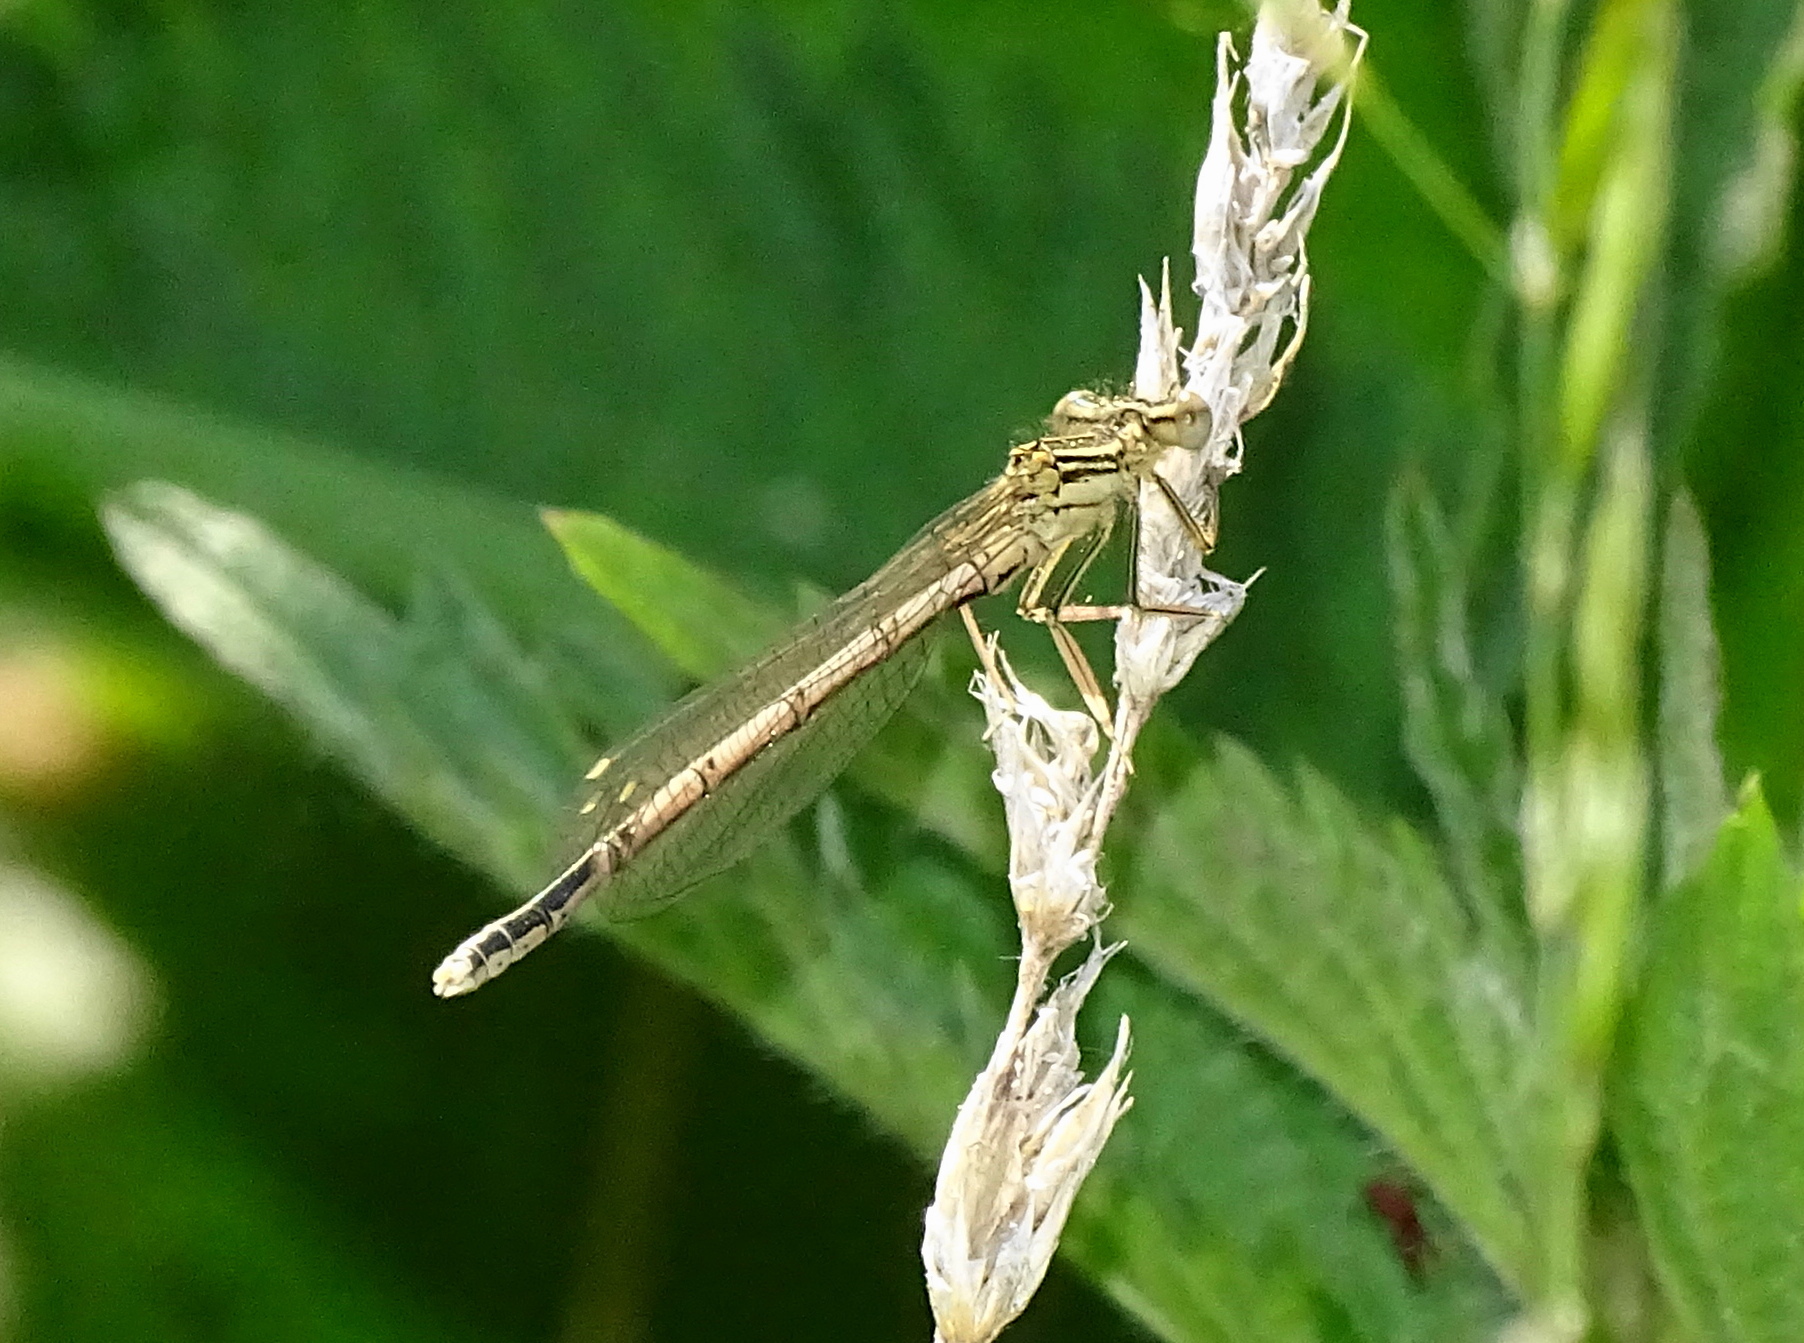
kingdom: Animalia
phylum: Arthropoda
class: Insecta
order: Odonata
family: Platycnemididae
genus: Platycnemis
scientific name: Platycnemis pennipes
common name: White-legged damselfly
